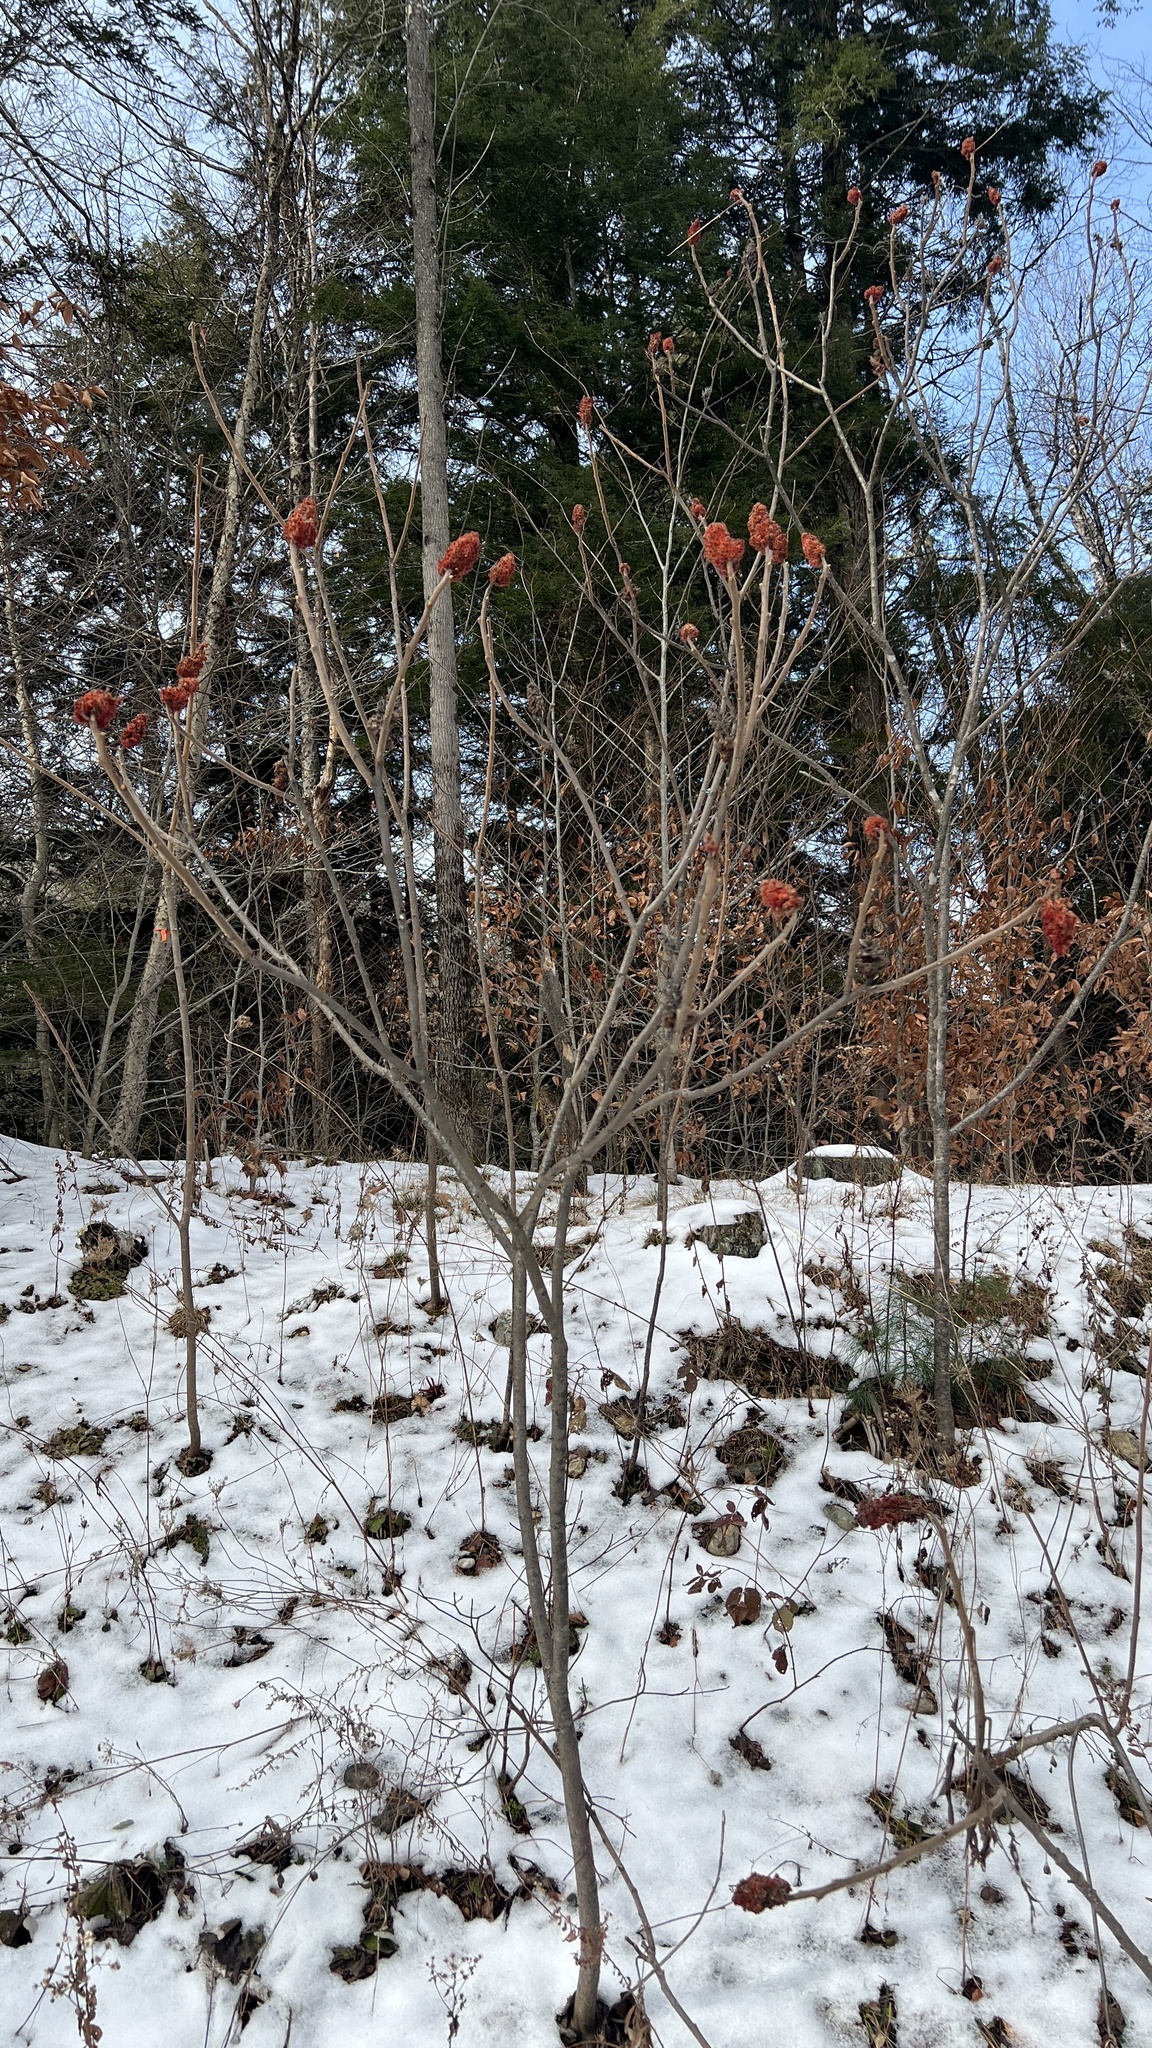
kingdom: Plantae
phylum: Tracheophyta
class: Magnoliopsida
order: Sapindales
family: Anacardiaceae
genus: Rhus
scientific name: Rhus typhina
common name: Staghorn sumac
